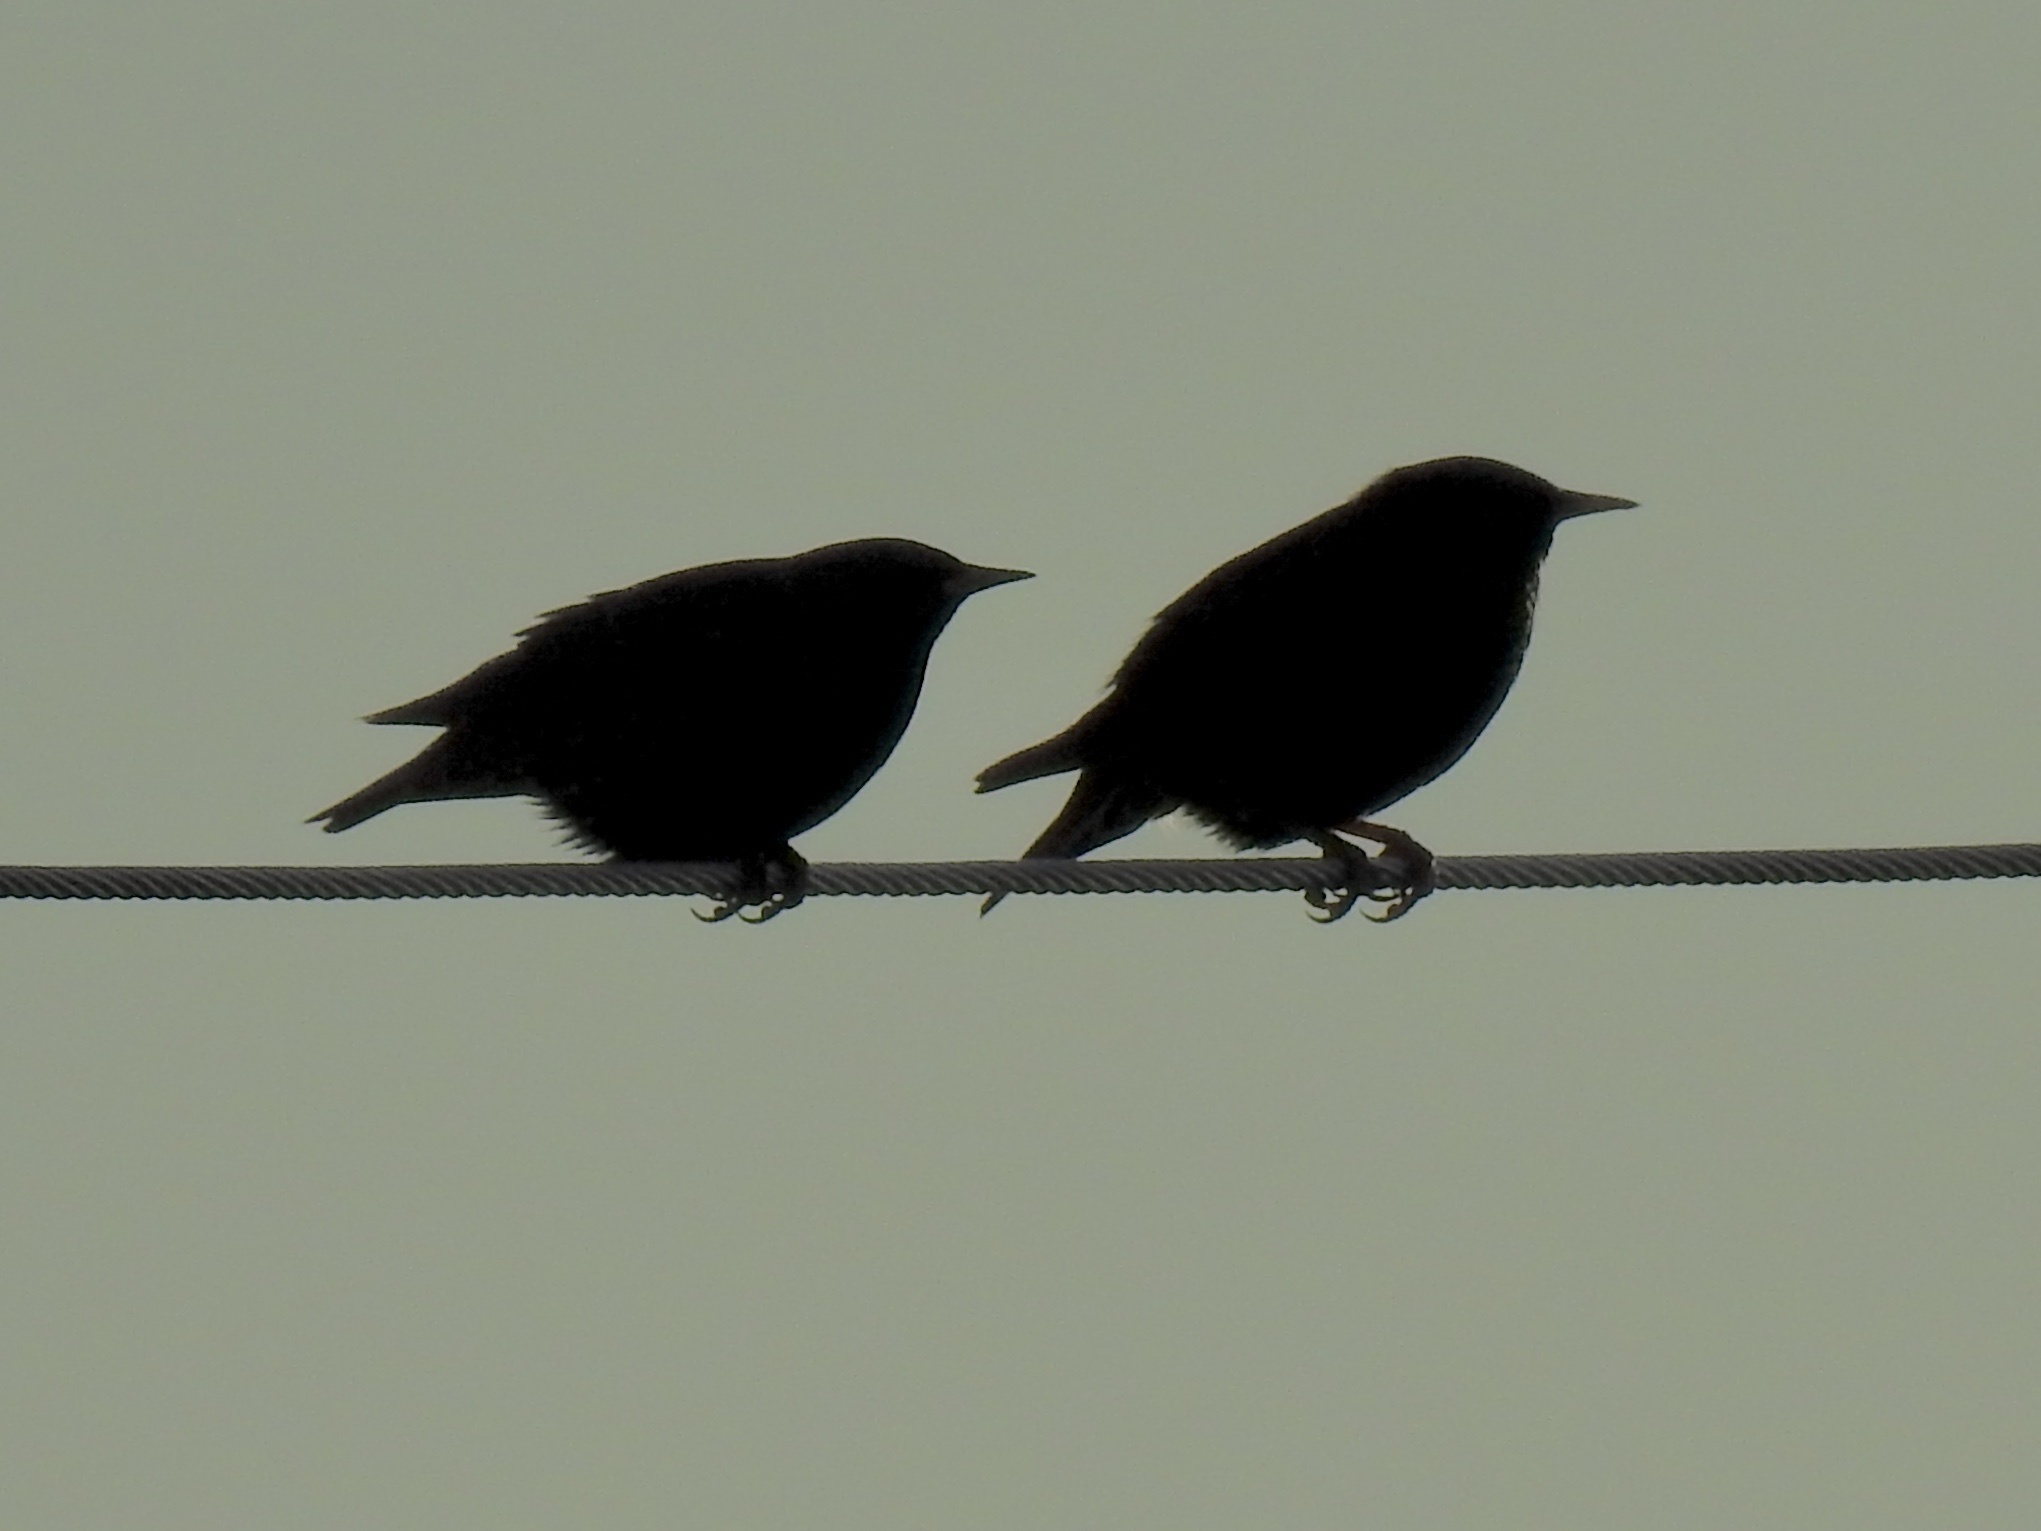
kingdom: Animalia
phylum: Chordata
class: Aves
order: Passeriformes
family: Sturnidae
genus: Sturnus
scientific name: Sturnus vulgaris
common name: Common starling
